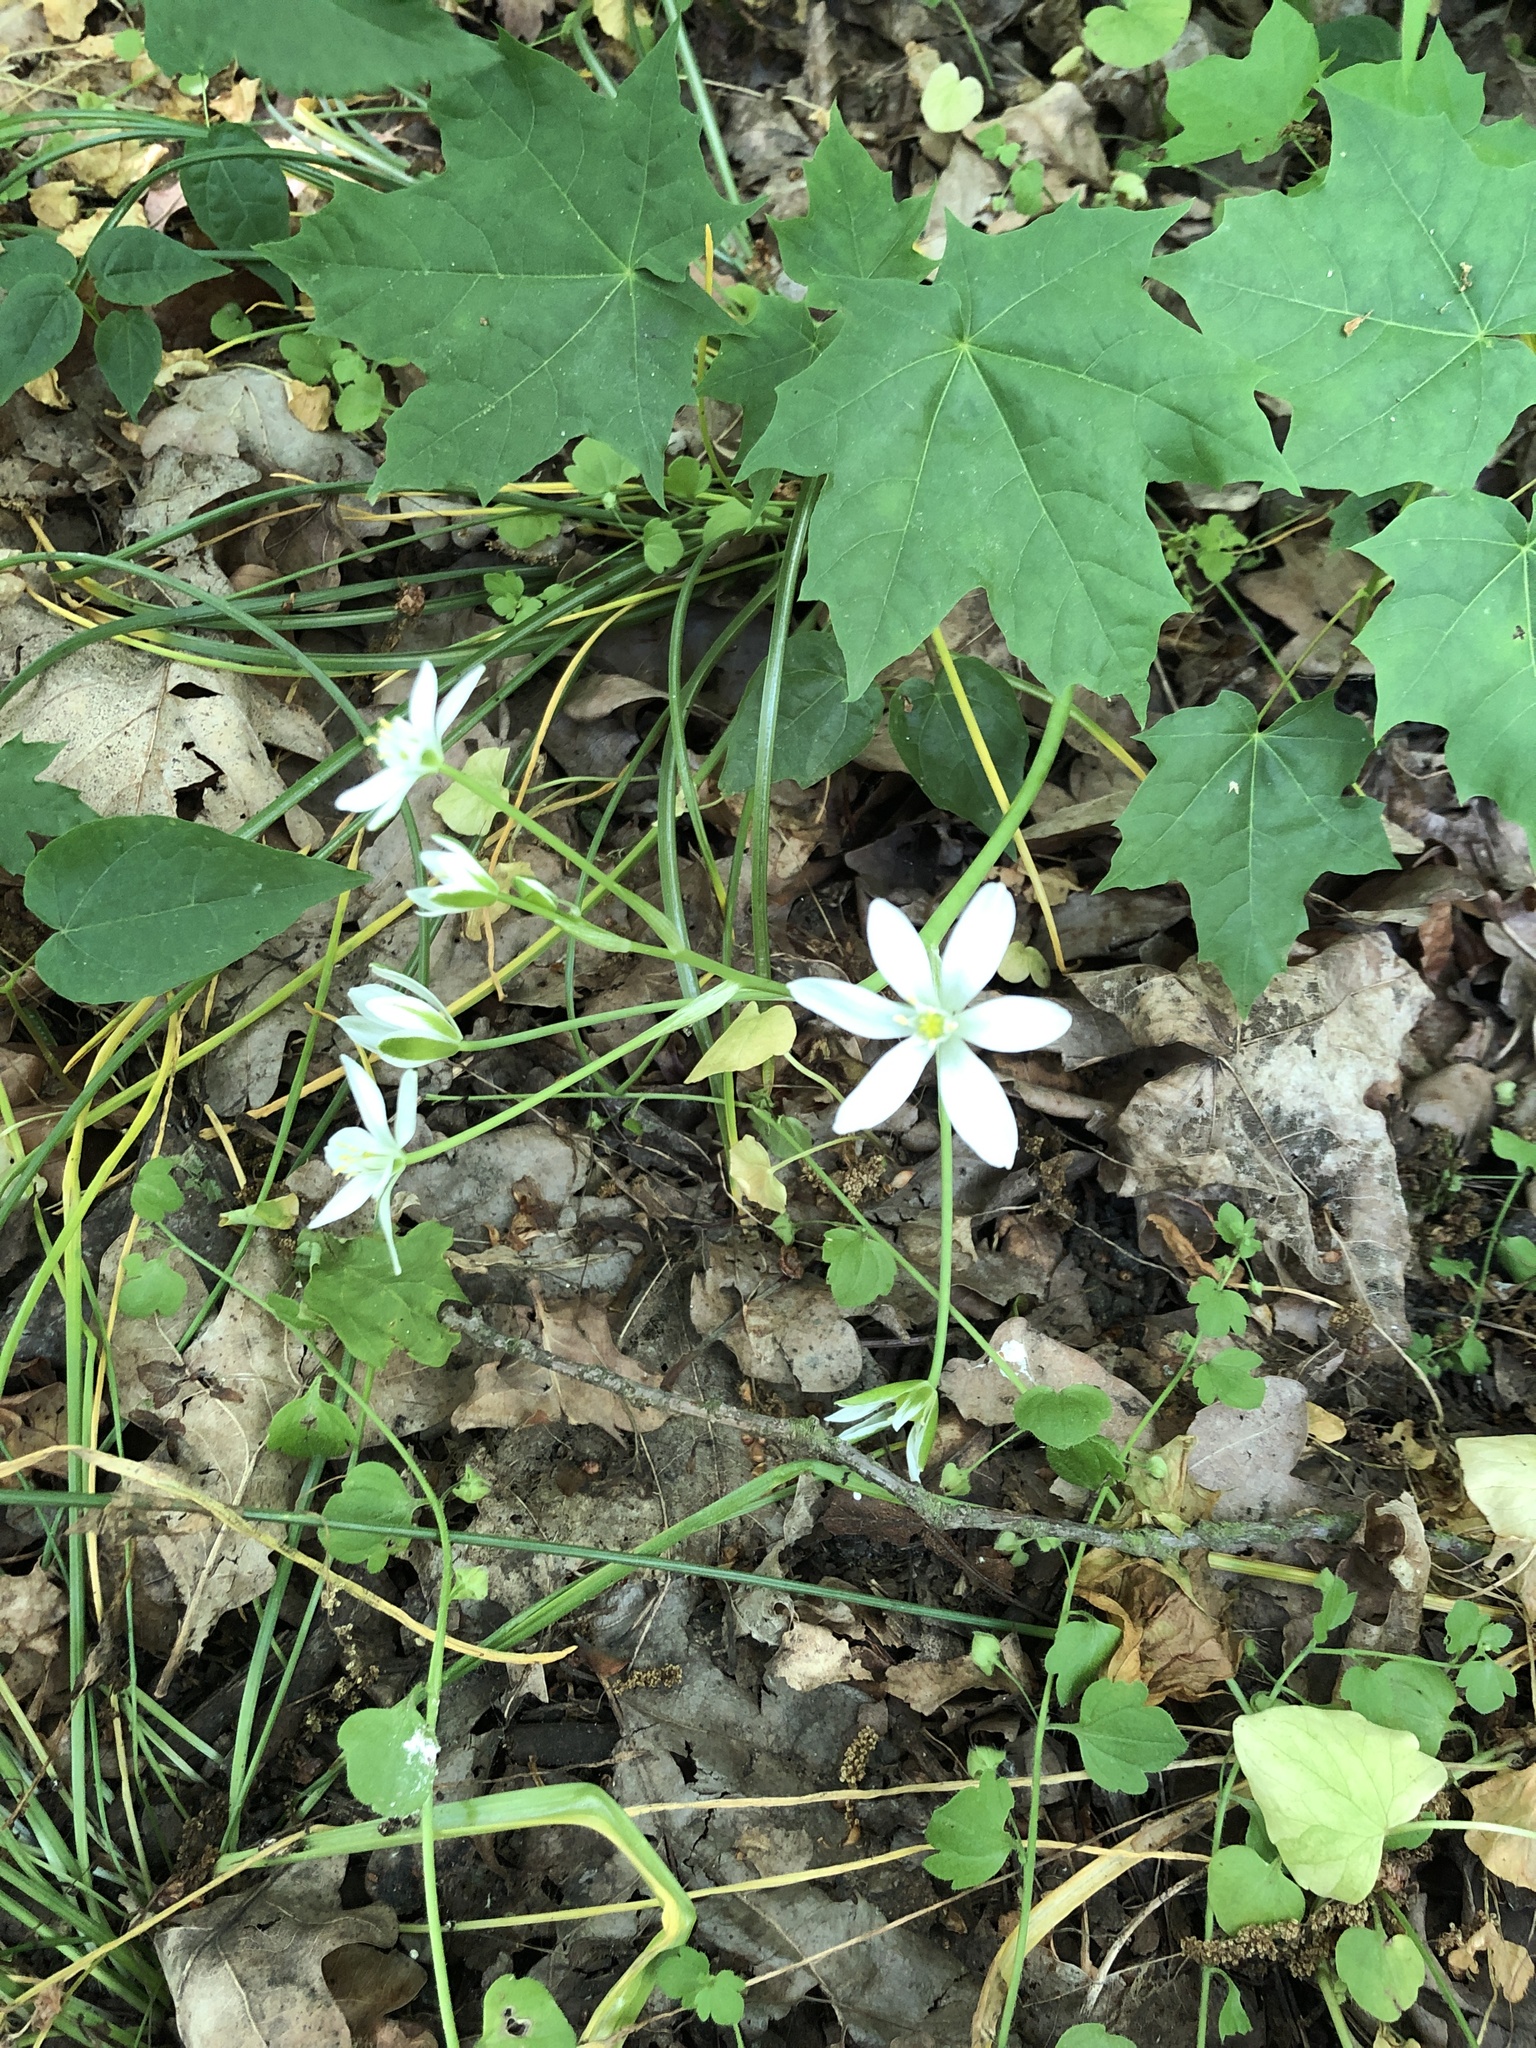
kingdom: Plantae
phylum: Tracheophyta
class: Liliopsida
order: Asparagales
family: Asparagaceae
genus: Ornithogalum
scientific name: Ornithogalum umbellatum
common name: Garden star-of-bethlehem
